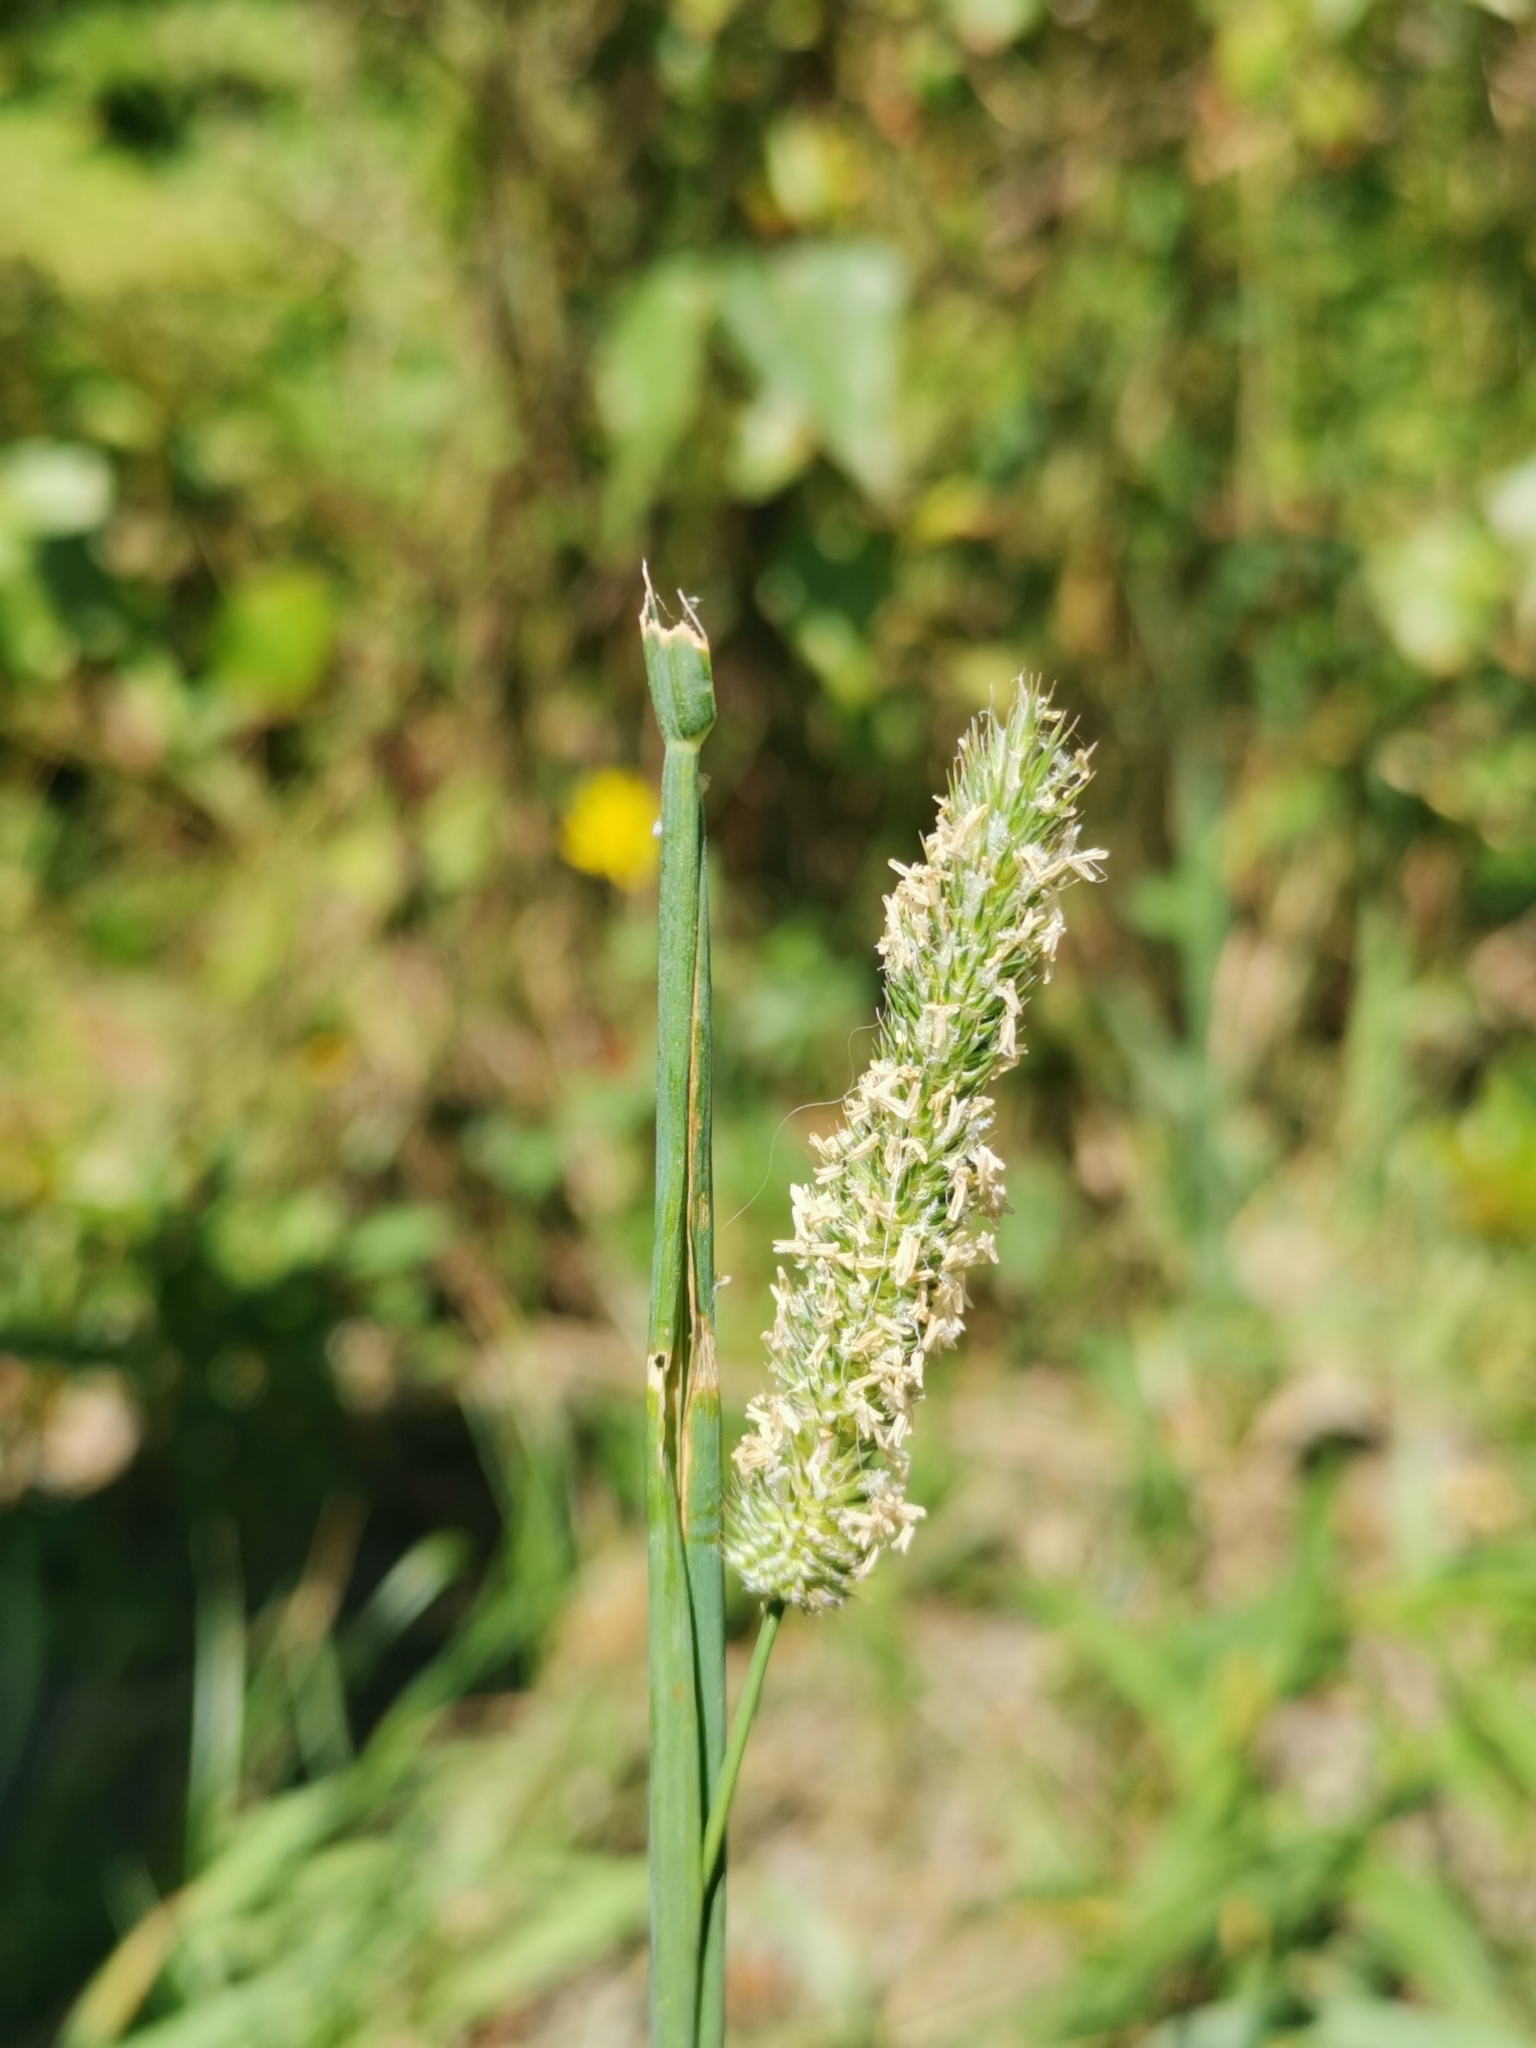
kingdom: Plantae
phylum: Tracheophyta
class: Liliopsida
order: Poales
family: Poaceae
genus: Phleum
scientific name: Phleum pratense
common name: Timothy grass
